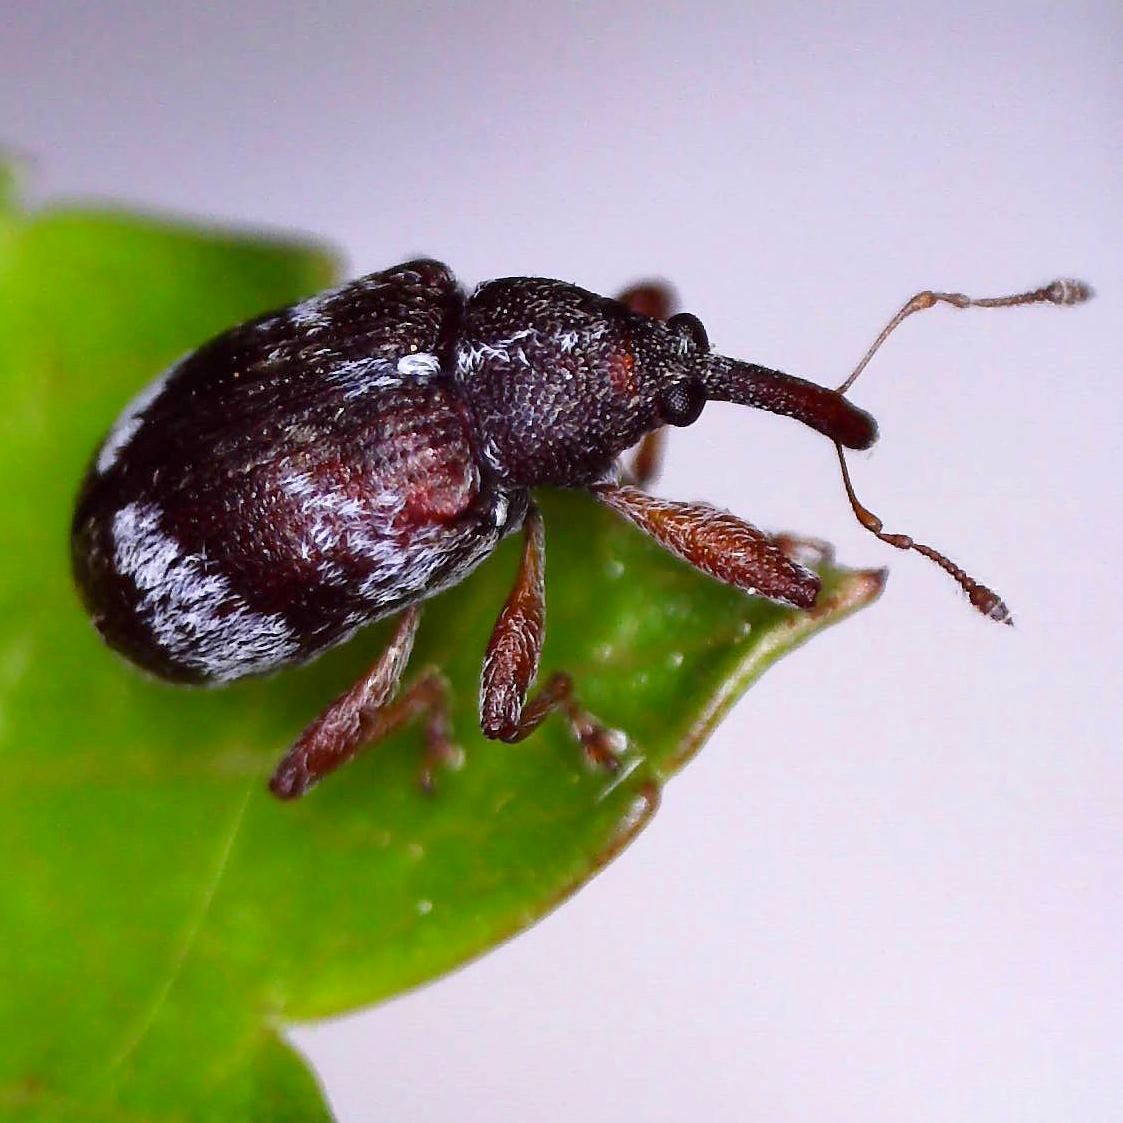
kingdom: Animalia
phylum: Arthropoda
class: Insecta
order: Coleoptera
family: Curculionidae
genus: Anthonomus
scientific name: Anthonomus pedicularius
